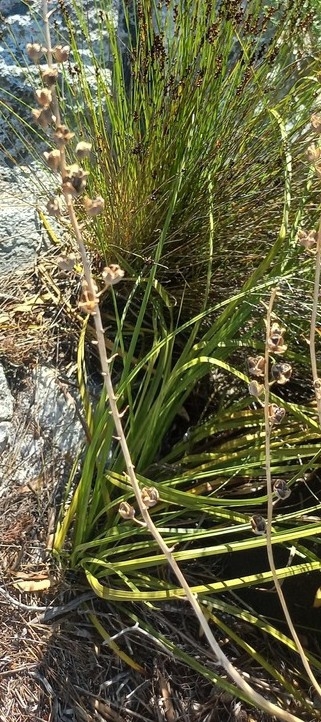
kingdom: Plantae
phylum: Tracheophyta
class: Liliopsida
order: Asparagales
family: Asphodelaceae
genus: Trachyandra
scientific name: Trachyandra tabularis
